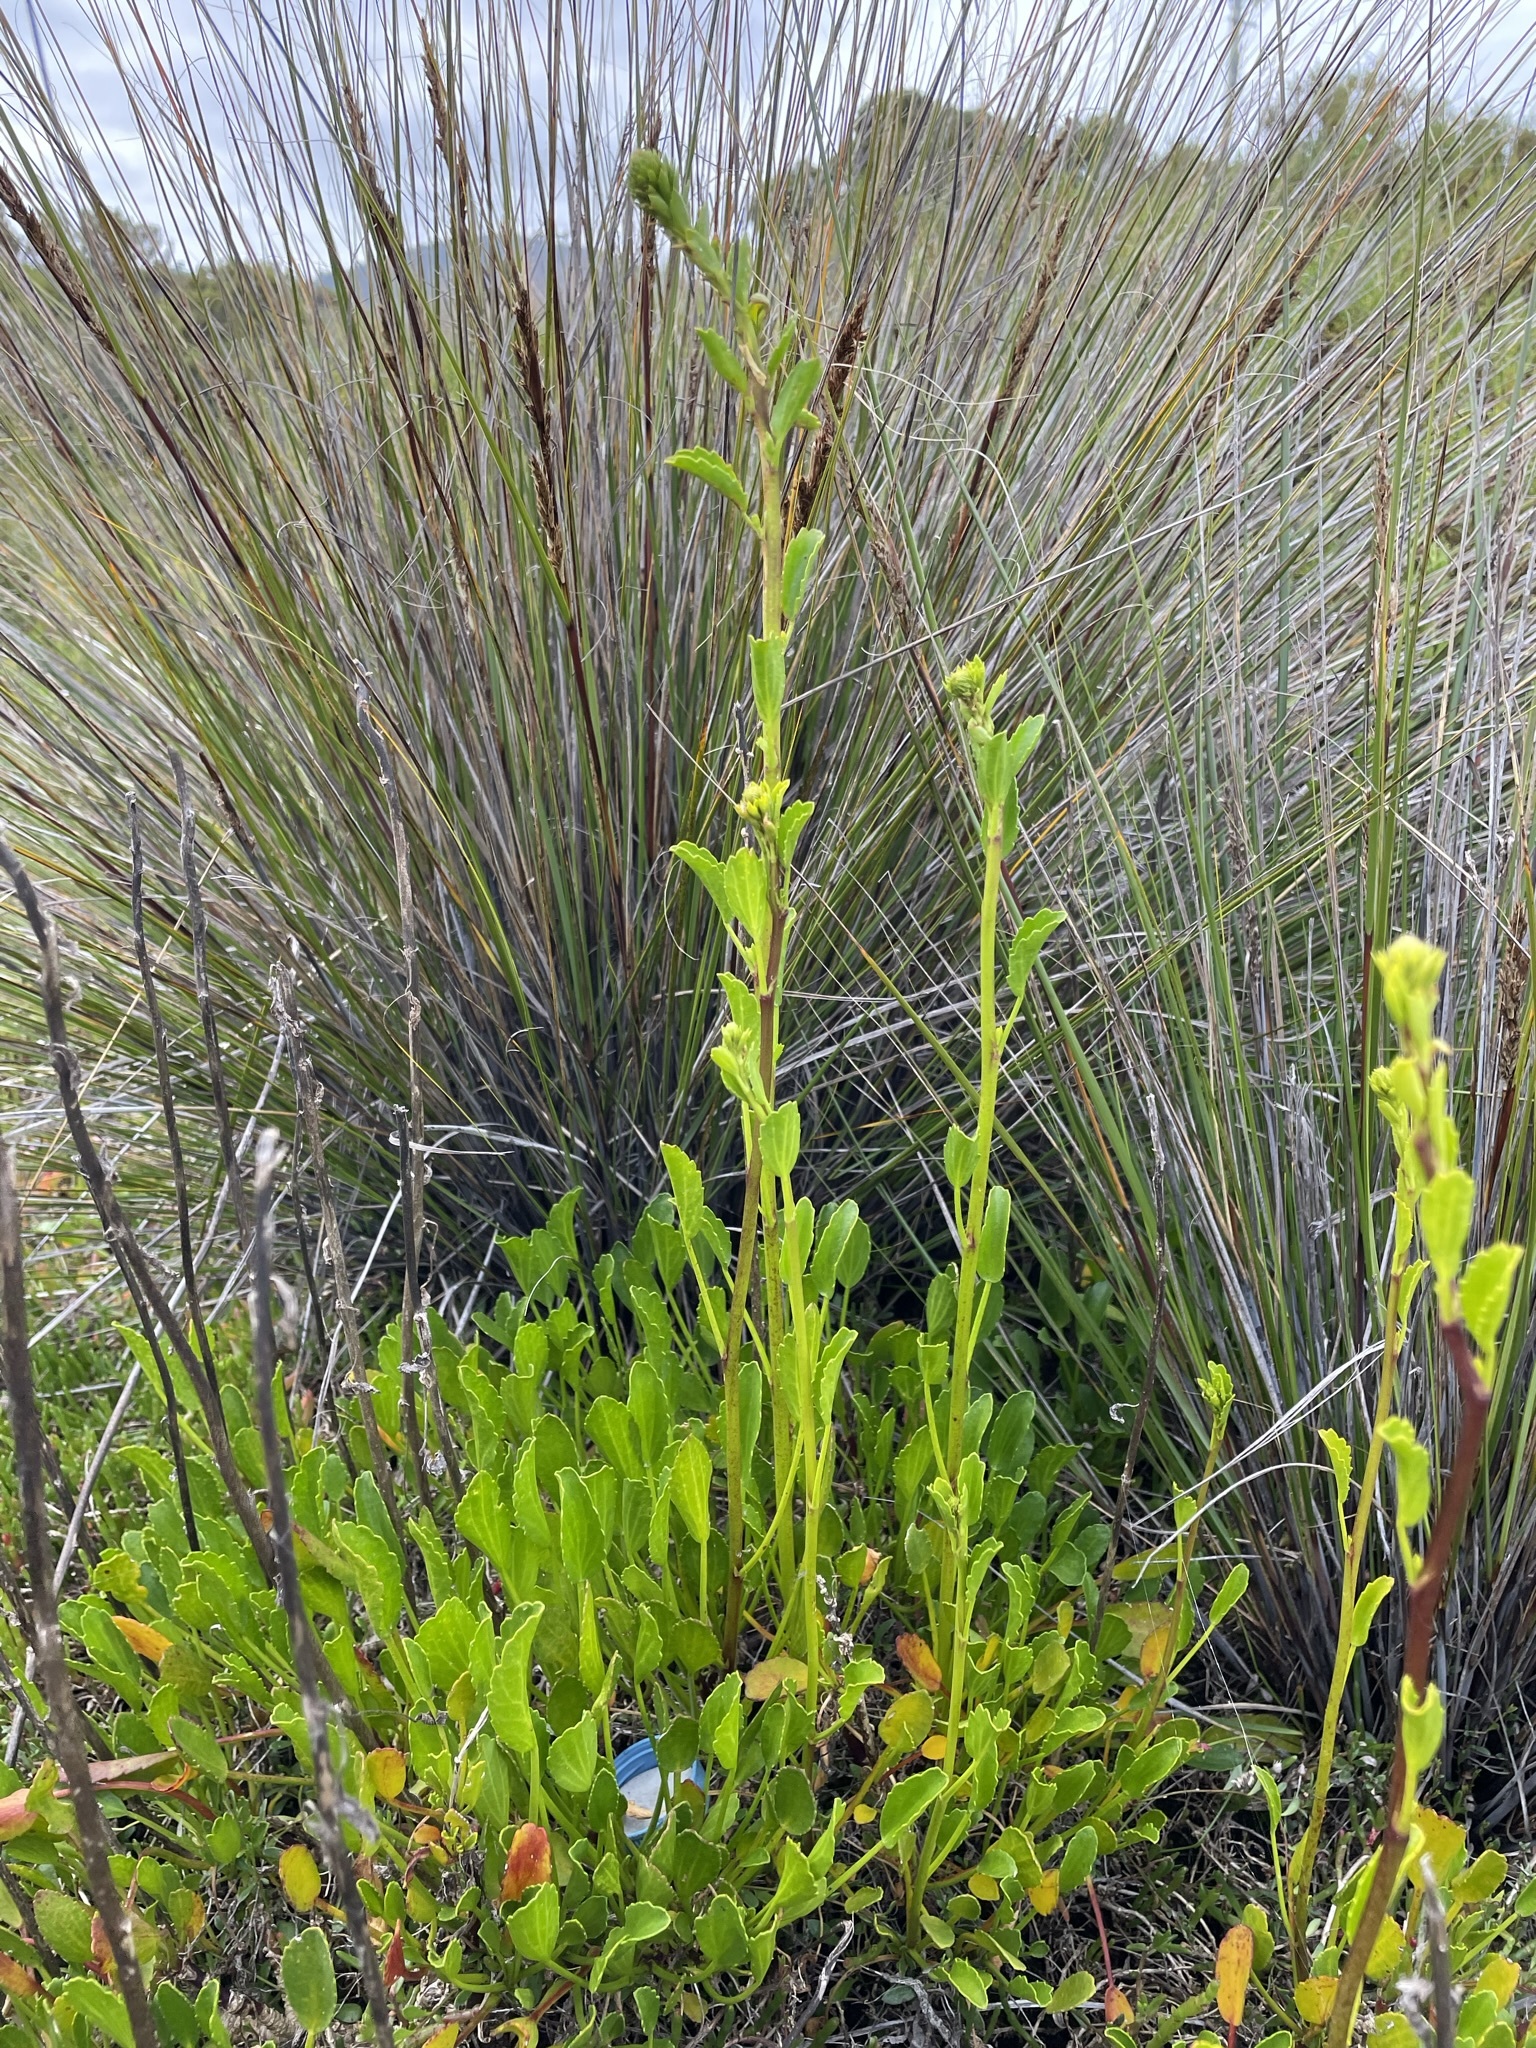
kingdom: Plantae
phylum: Tracheophyta
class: Magnoliopsida
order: Malvales
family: Malvaceae
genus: Lawrencia
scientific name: Lawrencia spicata
